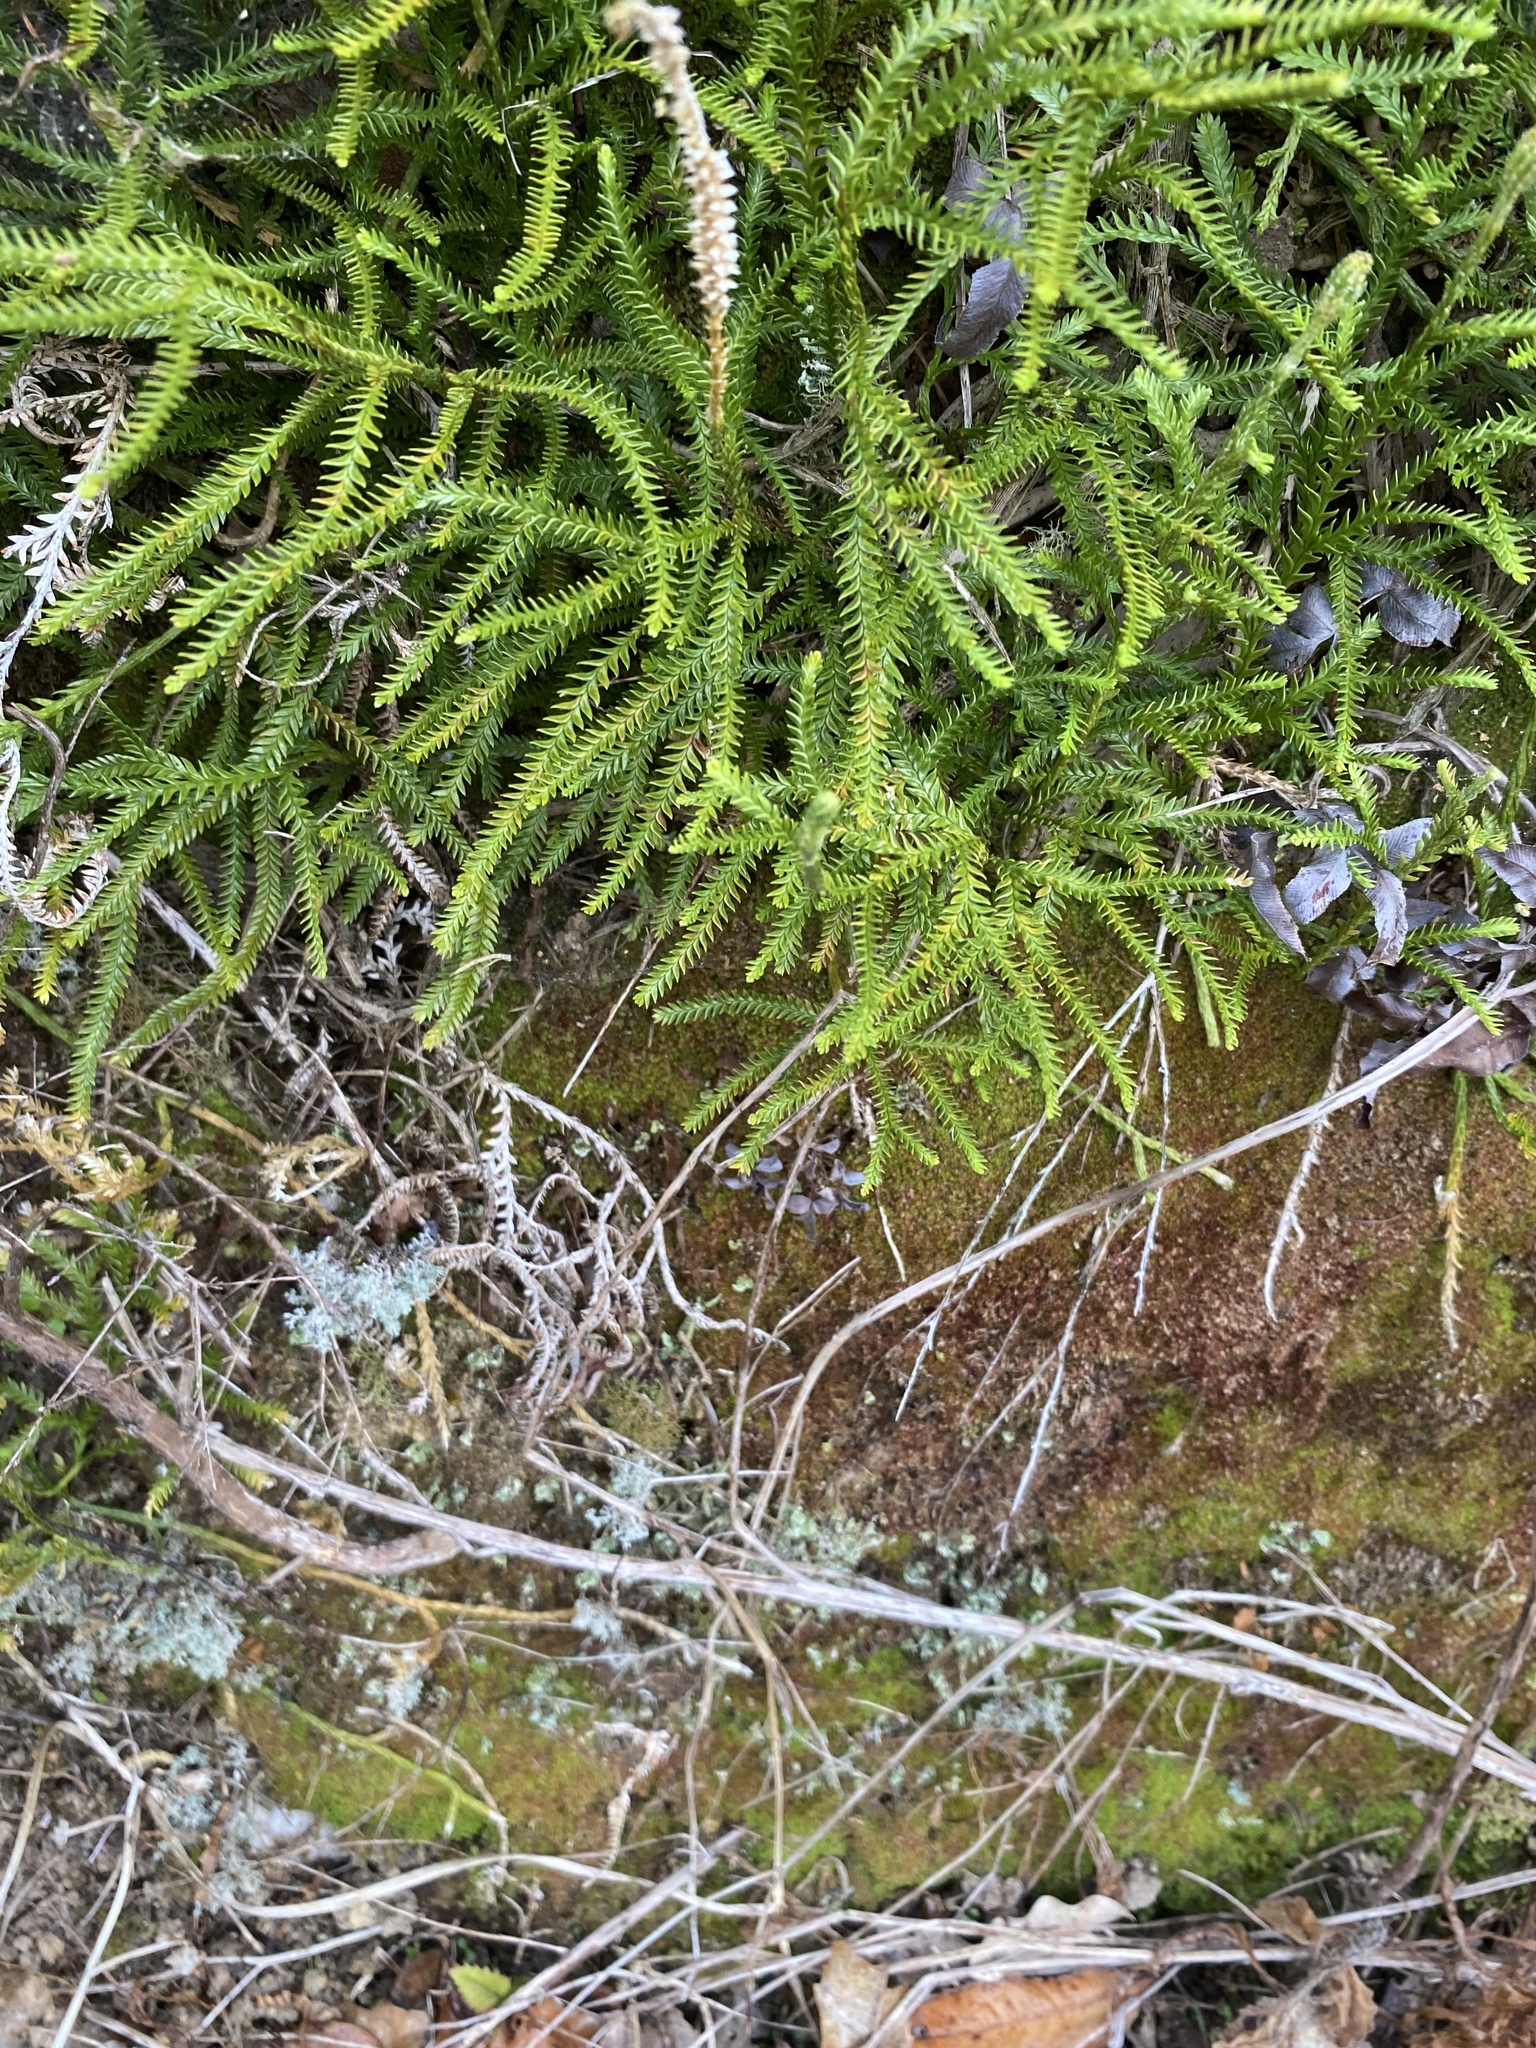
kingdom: Plantae
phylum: Tracheophyta
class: Lycopodiopsida
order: Lycopodiales
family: Lycopodiaceae
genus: Diphasium
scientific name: Diphasium scariosum
